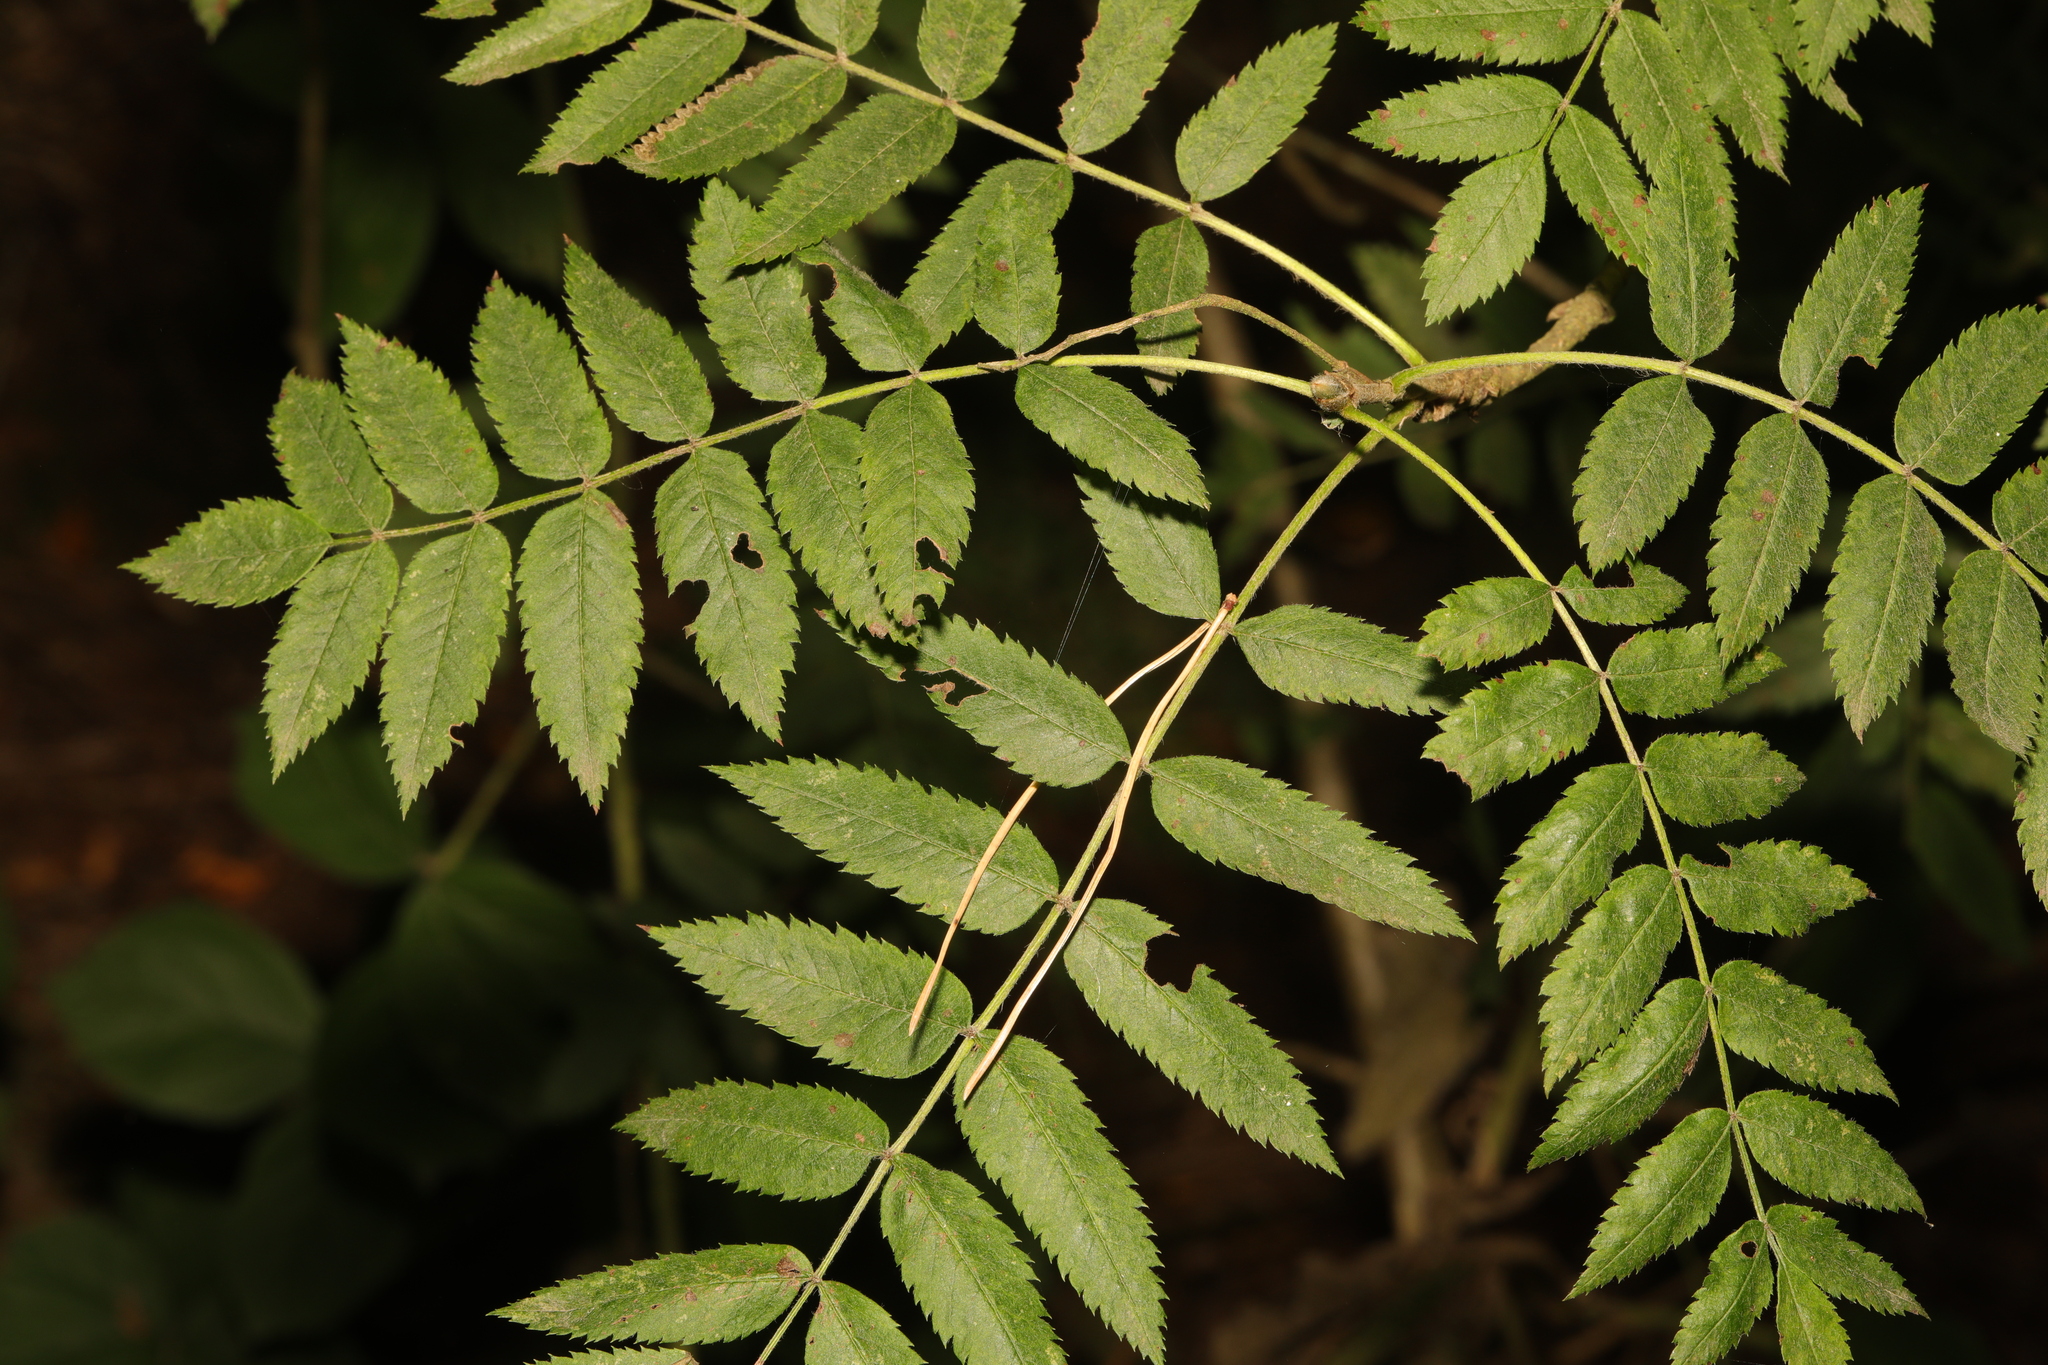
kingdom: Plantae
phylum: Tracheophyta
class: Magnoliopsida
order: Rosales
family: Rosaceae
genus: Sorbus
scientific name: Sorbus aucuparia
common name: Rowan
